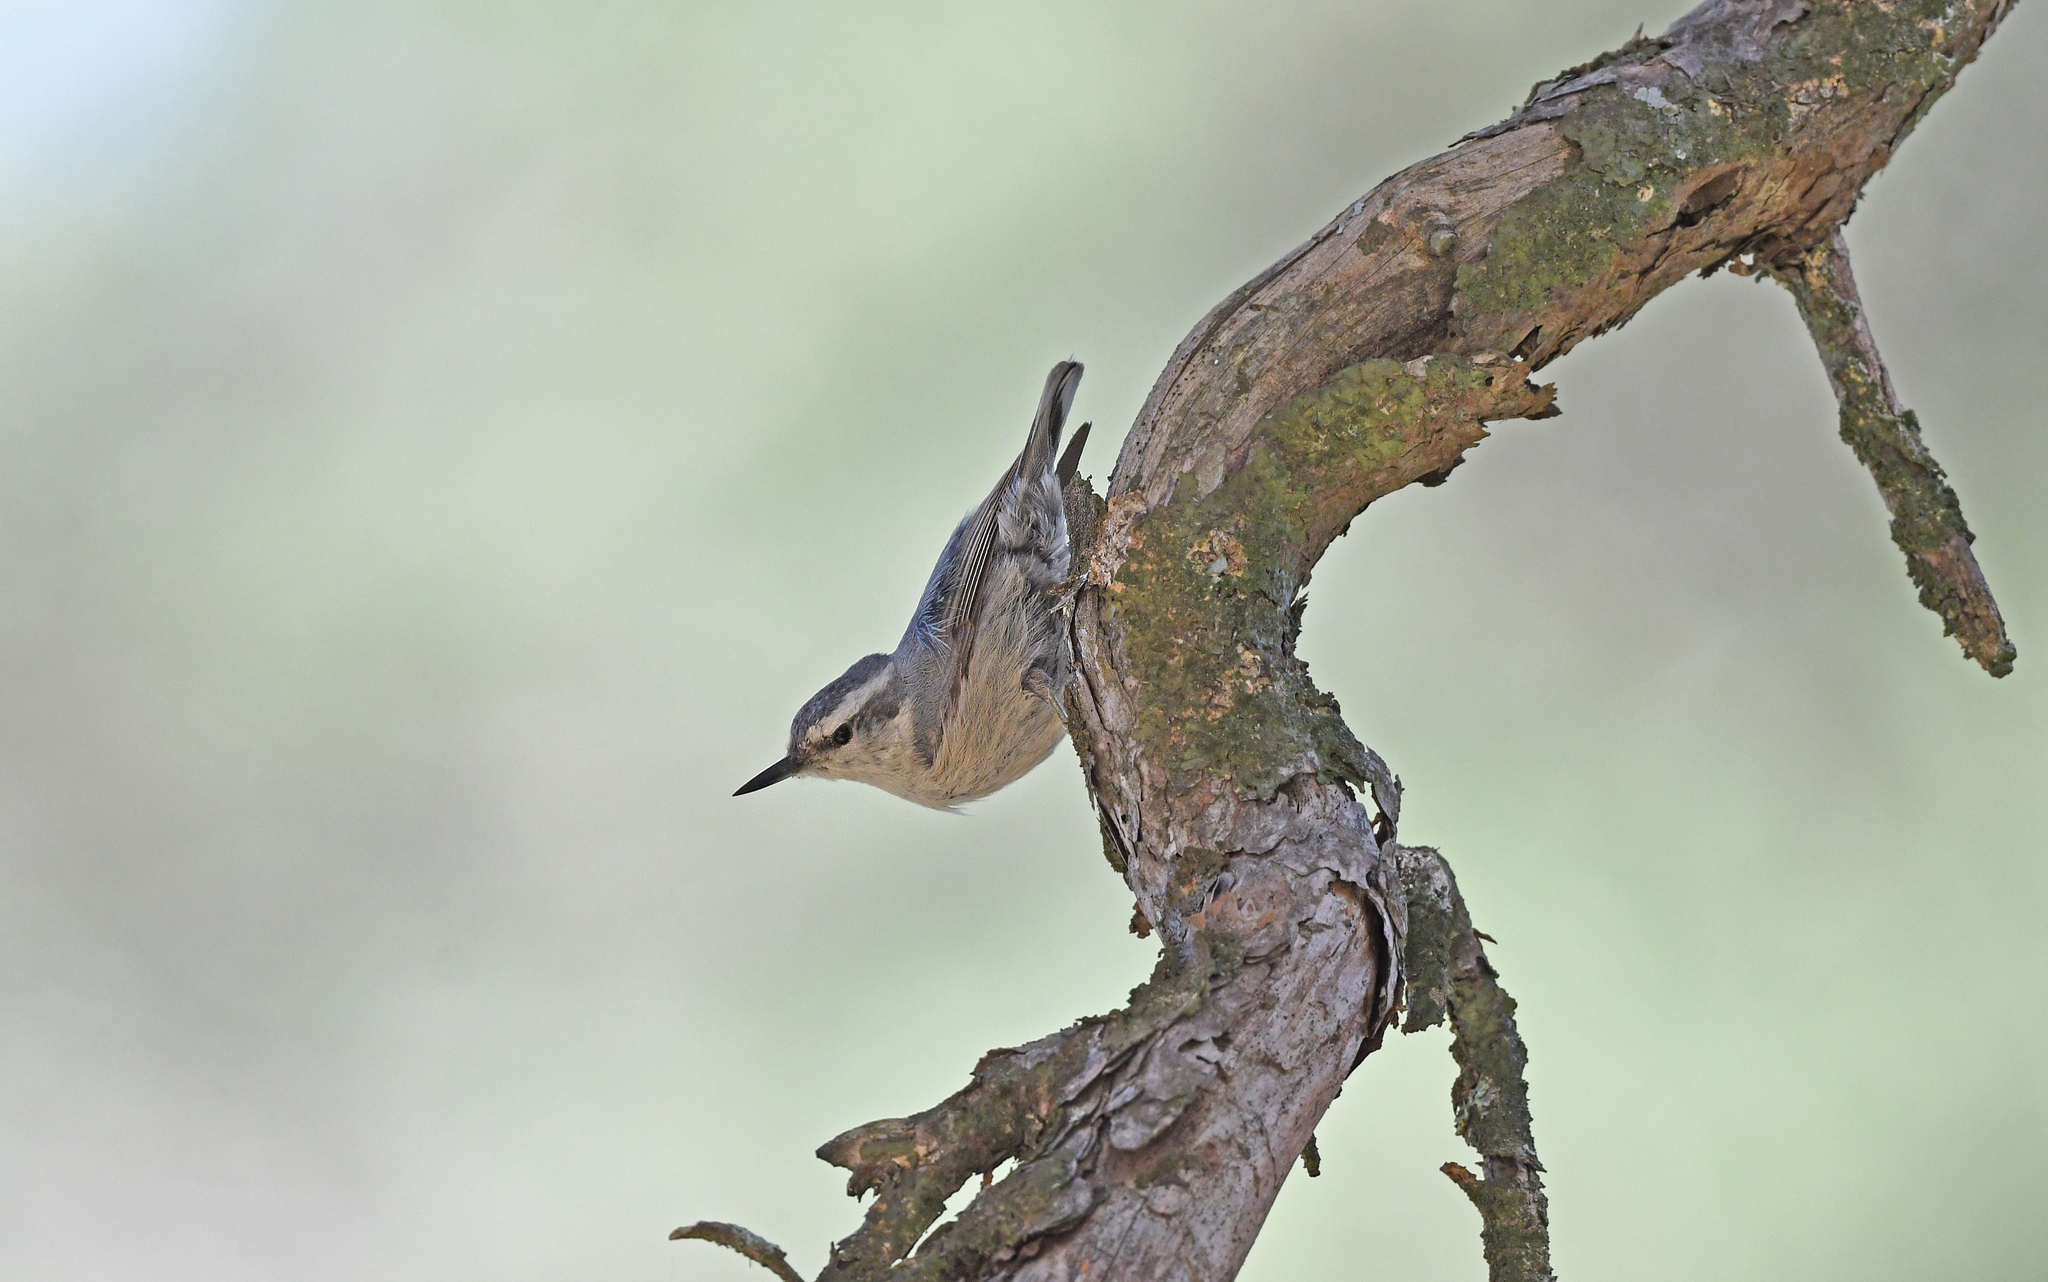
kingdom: Animalia
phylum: Chordata
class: Aves
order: Passeriformes
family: Sittidae
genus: Sitta
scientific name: Sitta whiteheadi
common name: Corsican nuthatch
